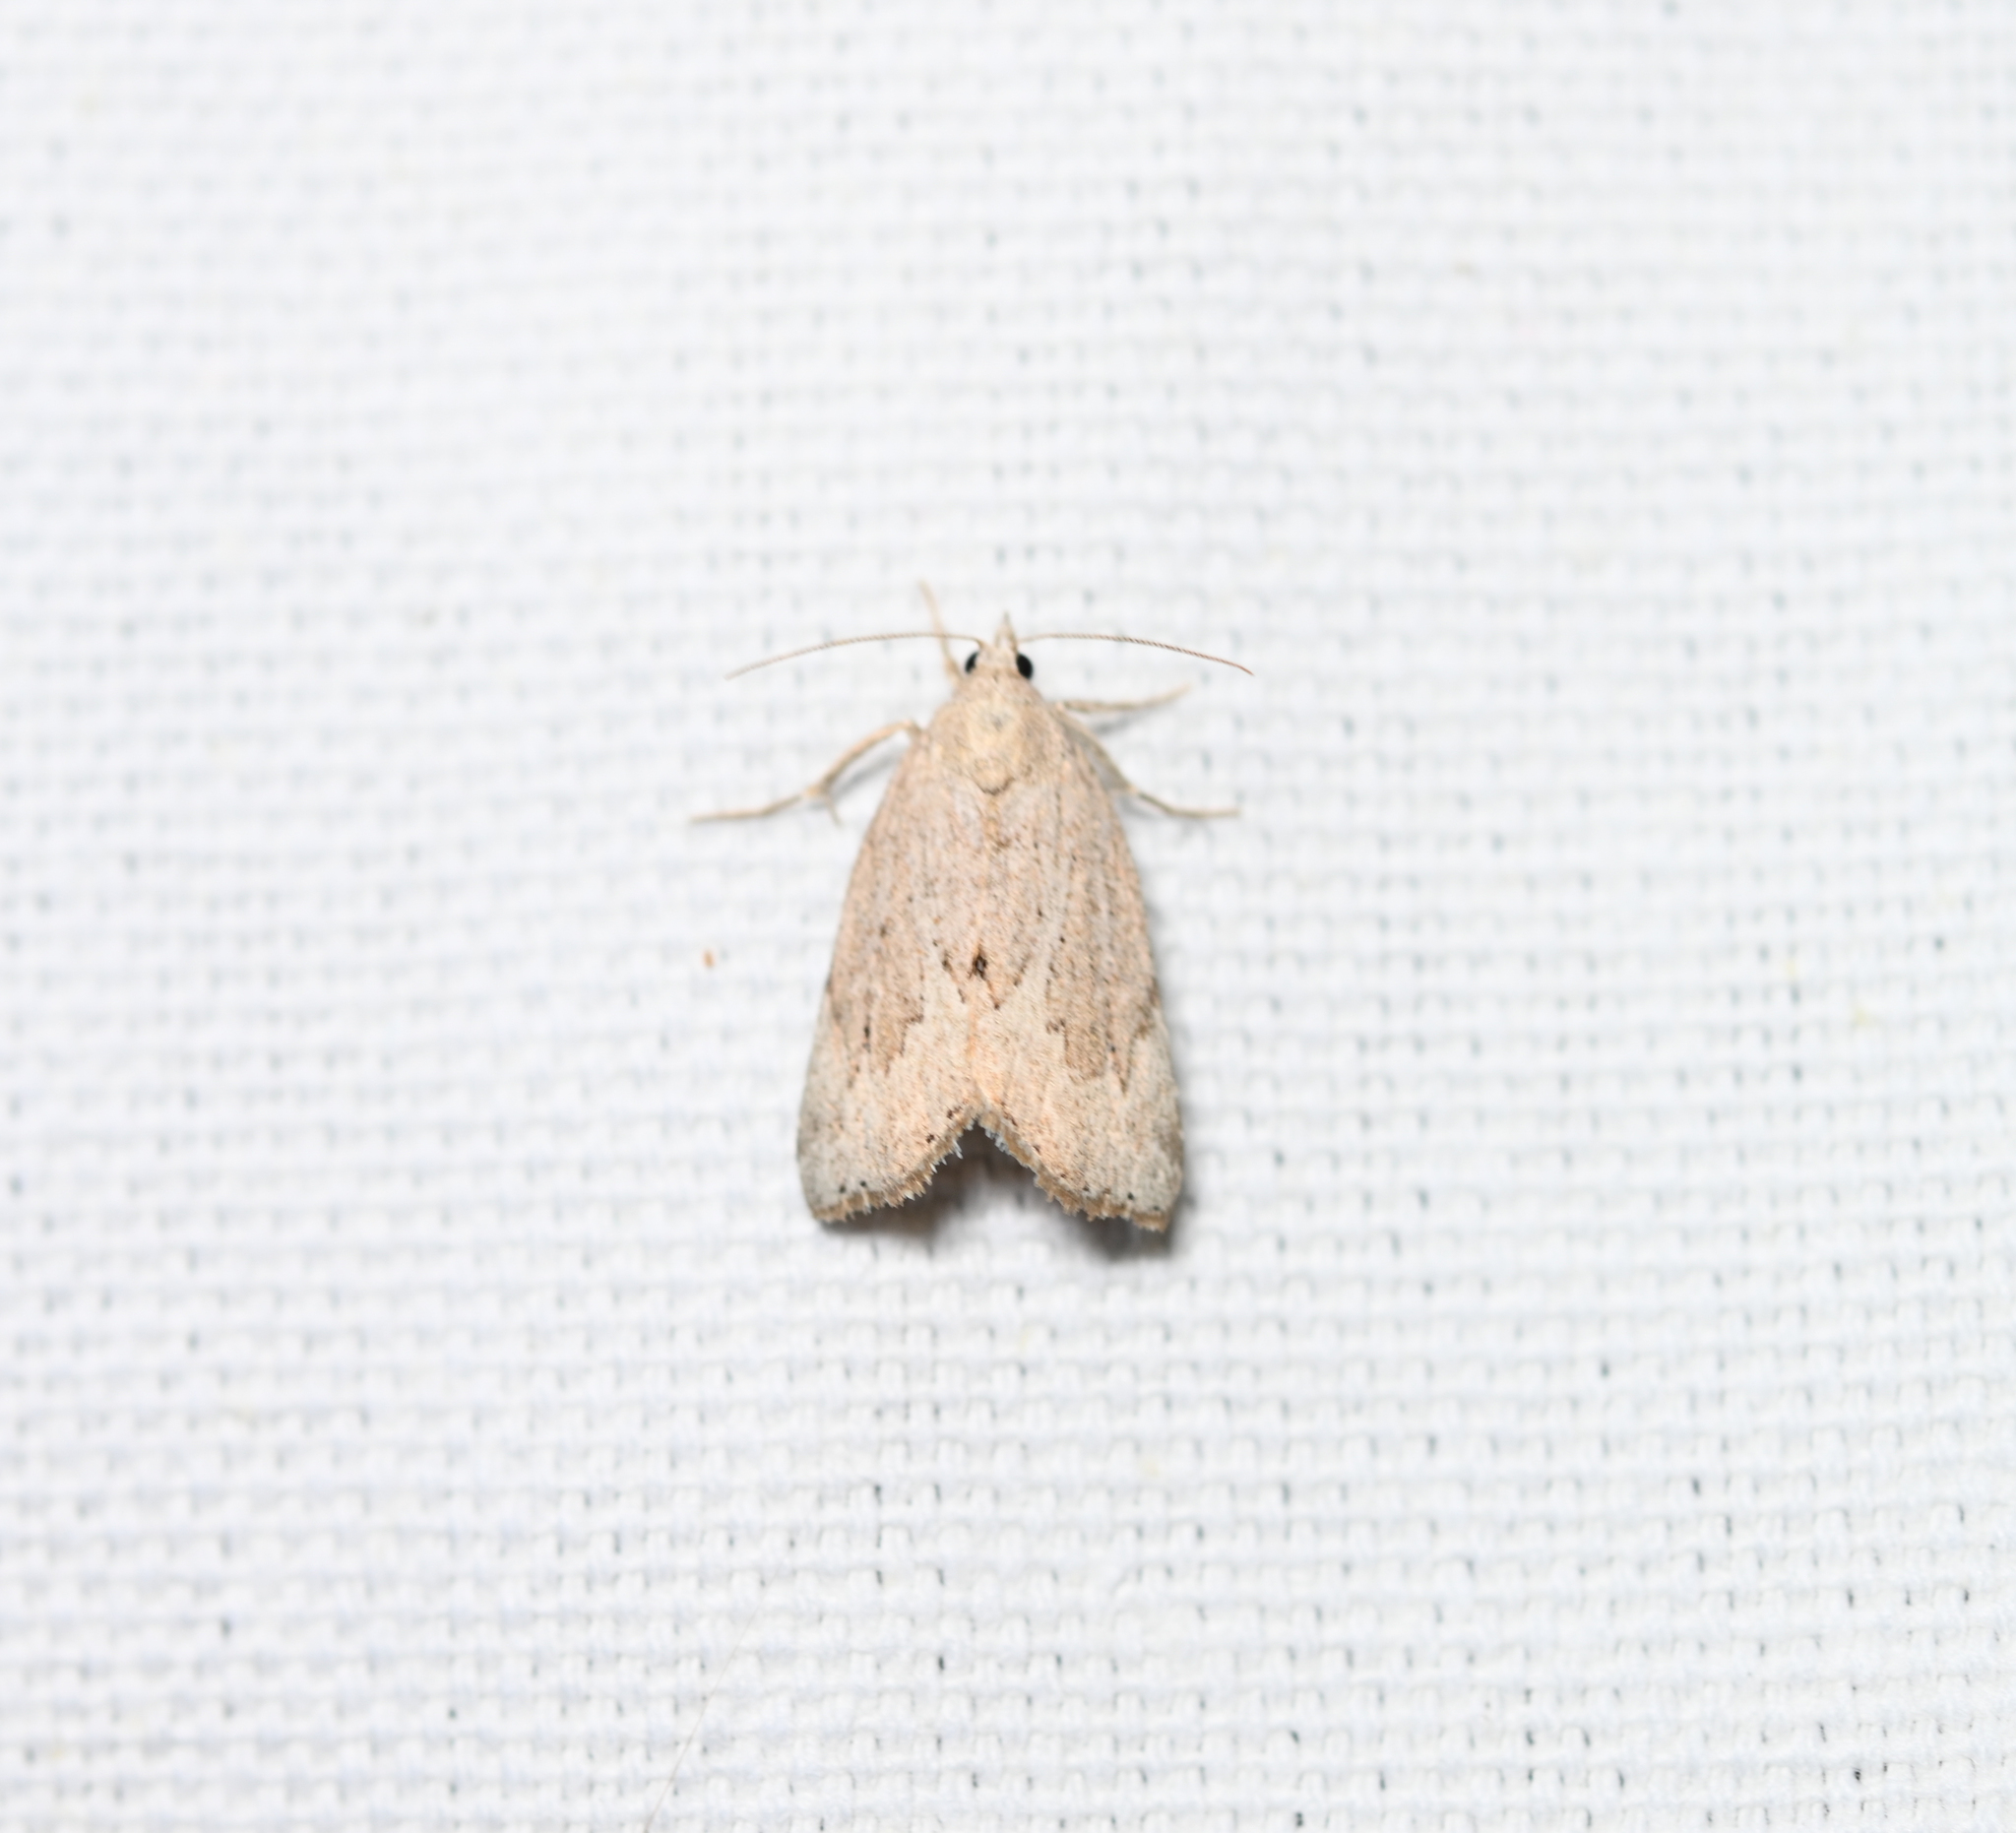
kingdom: Animalia
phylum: Arthropoda
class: Insecta
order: Lepidoptera
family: Erebidae
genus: Cutina
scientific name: Cutina albopunctella
